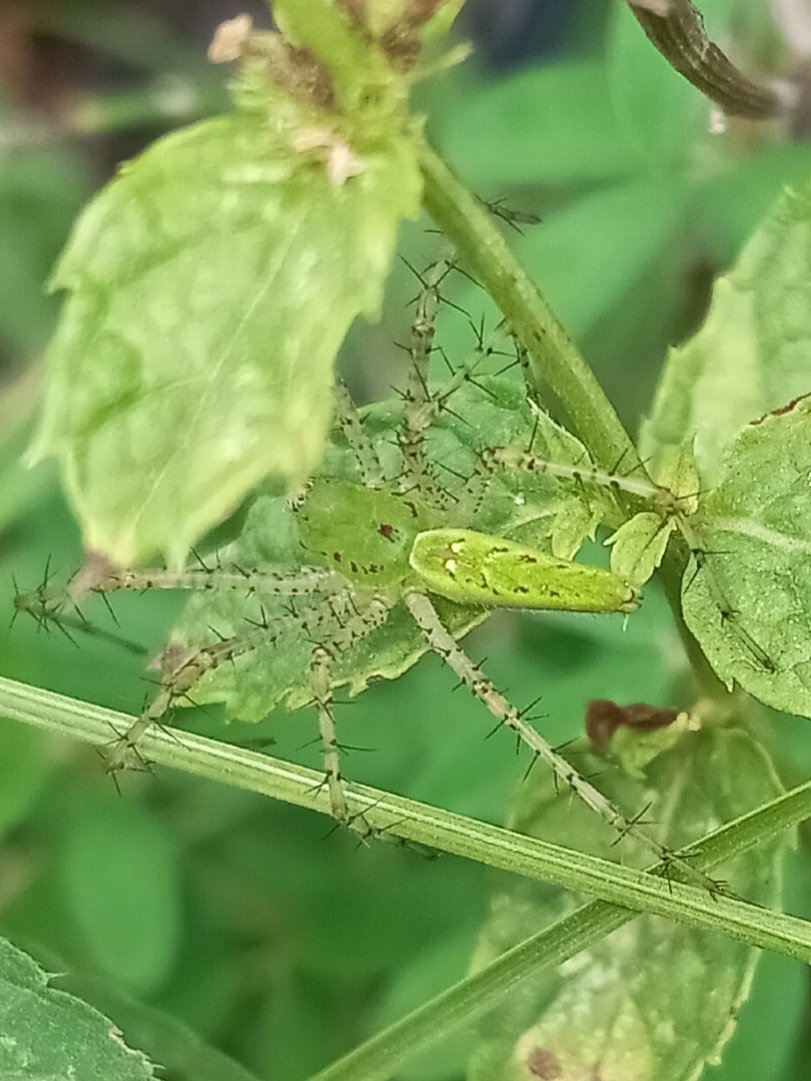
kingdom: Animalia
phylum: Arthropoda
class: Arachnida
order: Araneae
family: Oxyopidae
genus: Peucetia
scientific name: Peucetia viridans
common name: Lynx spiders
